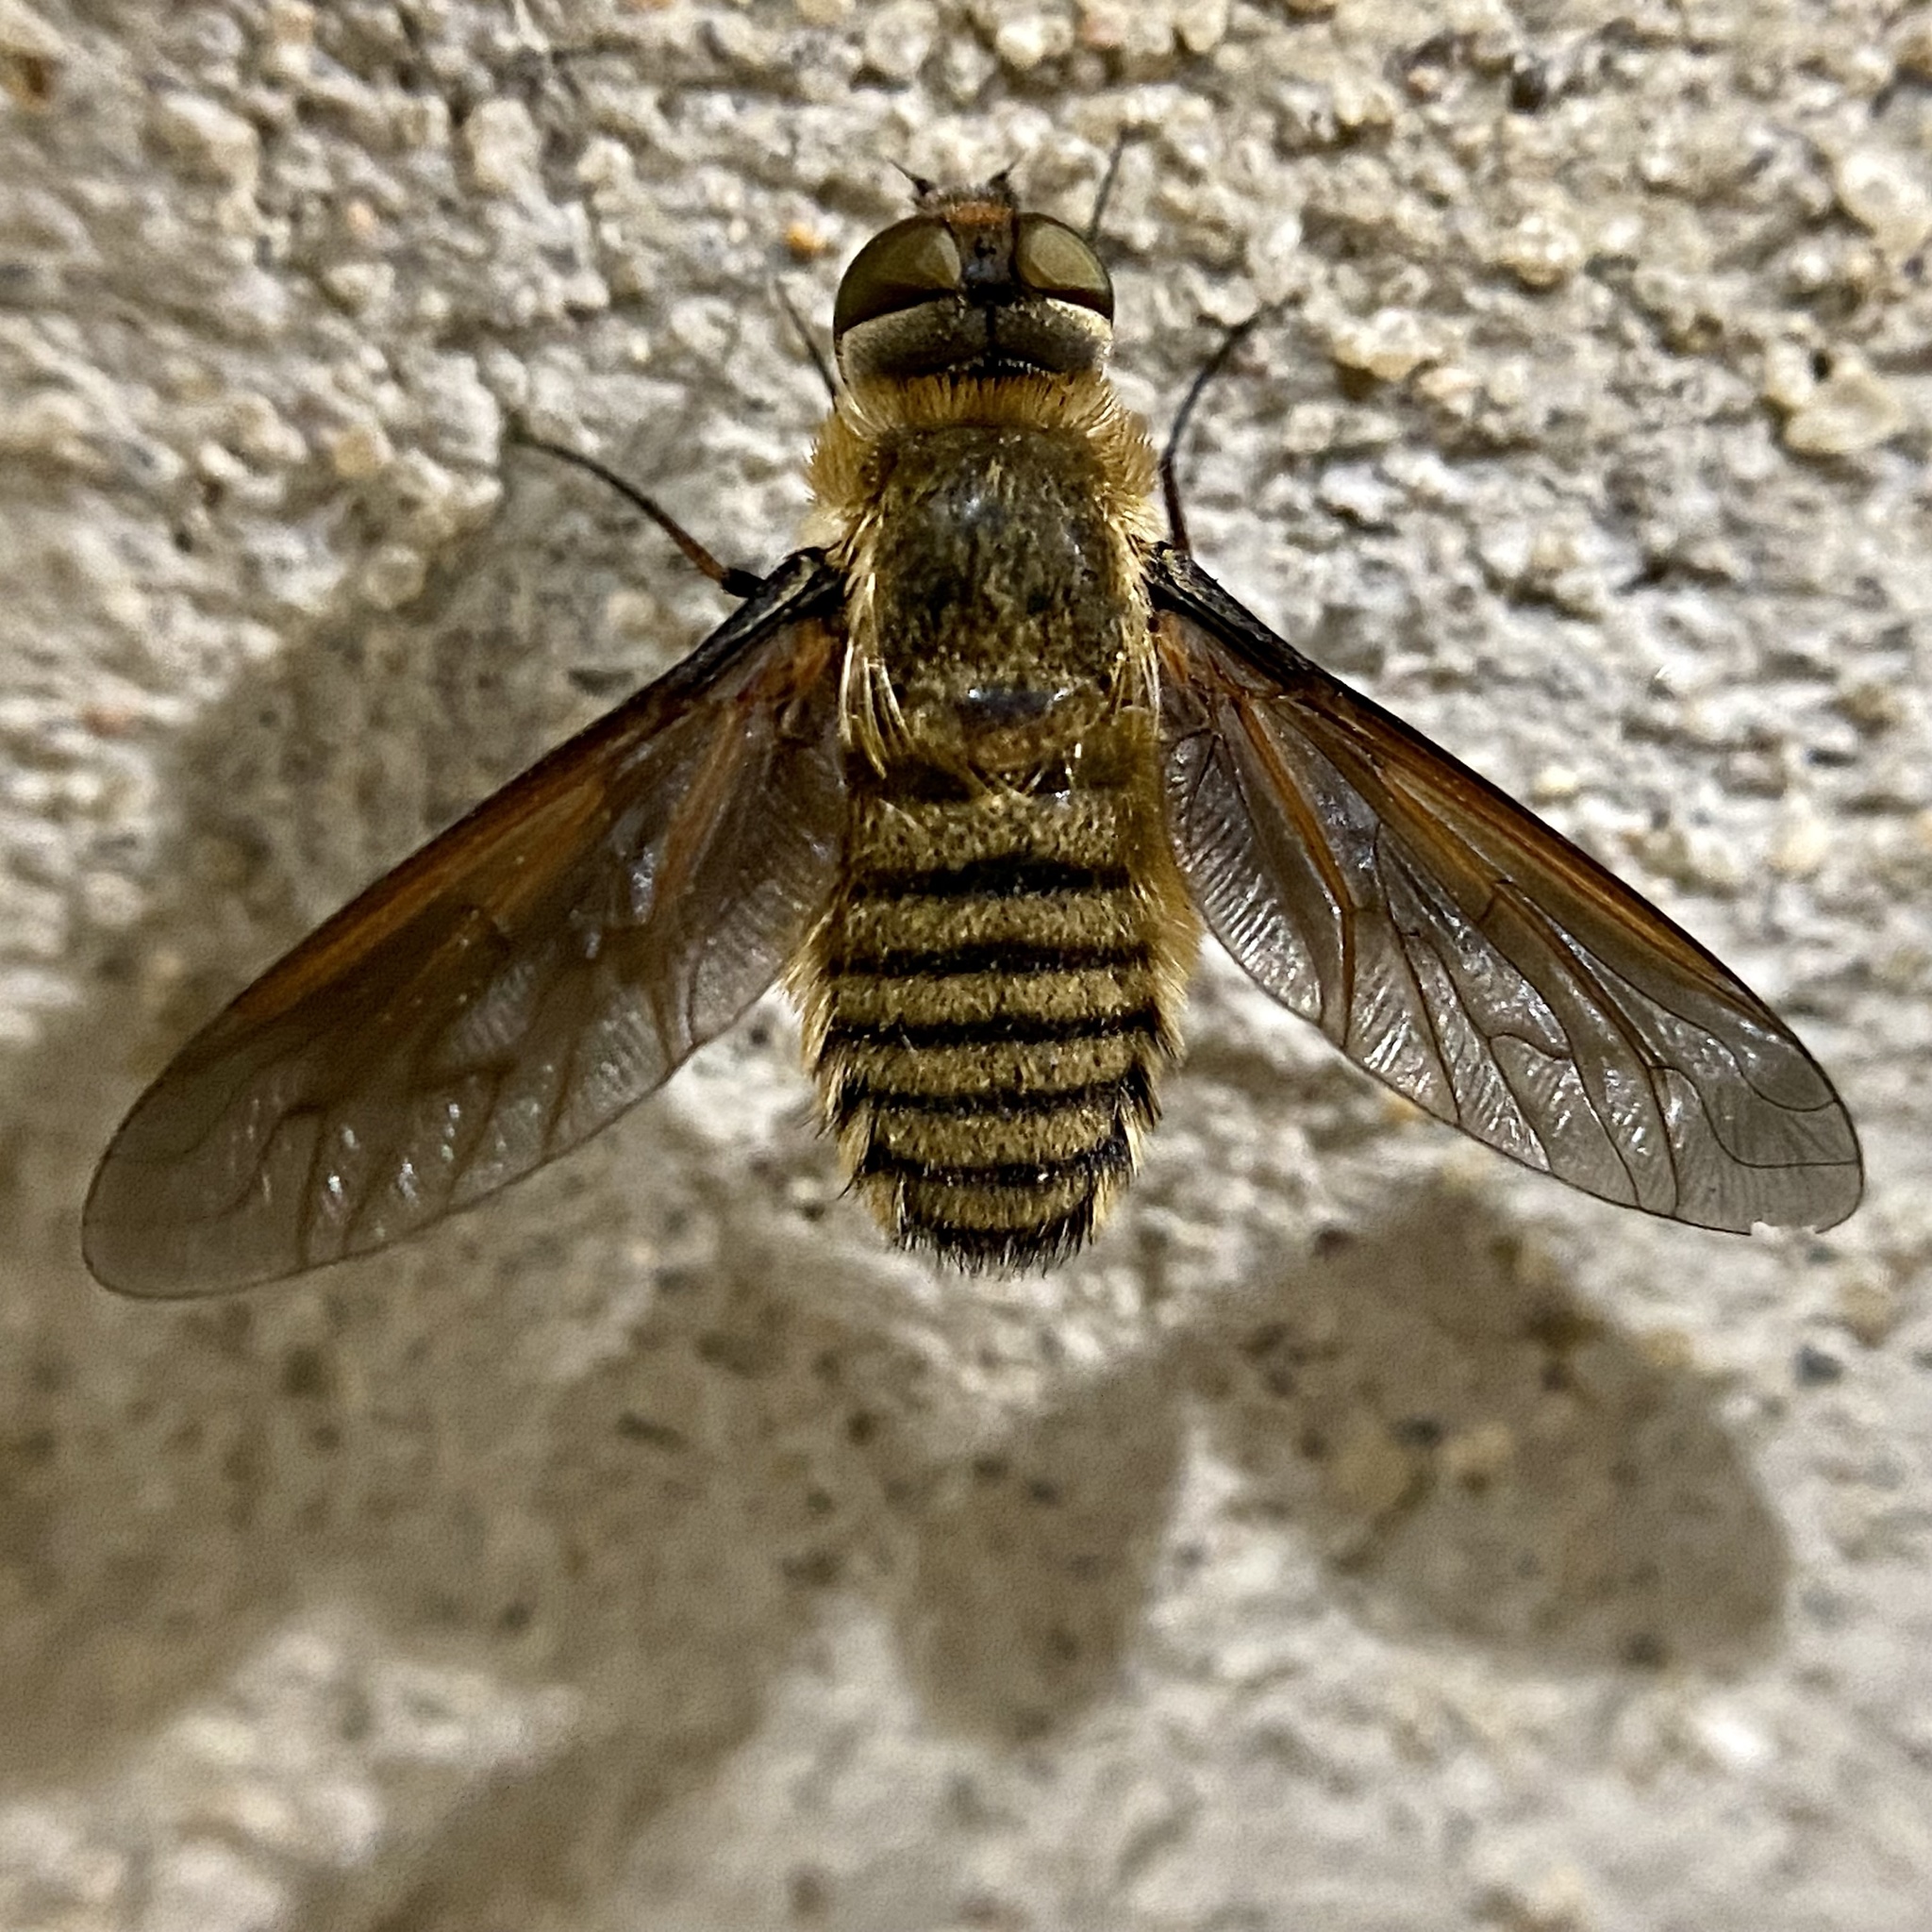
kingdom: Animalia
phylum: Arthropoda
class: Insecta
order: Diptera
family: Bombyliidae
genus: Poecilanthrax
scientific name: Poecilanthrax lucifer
